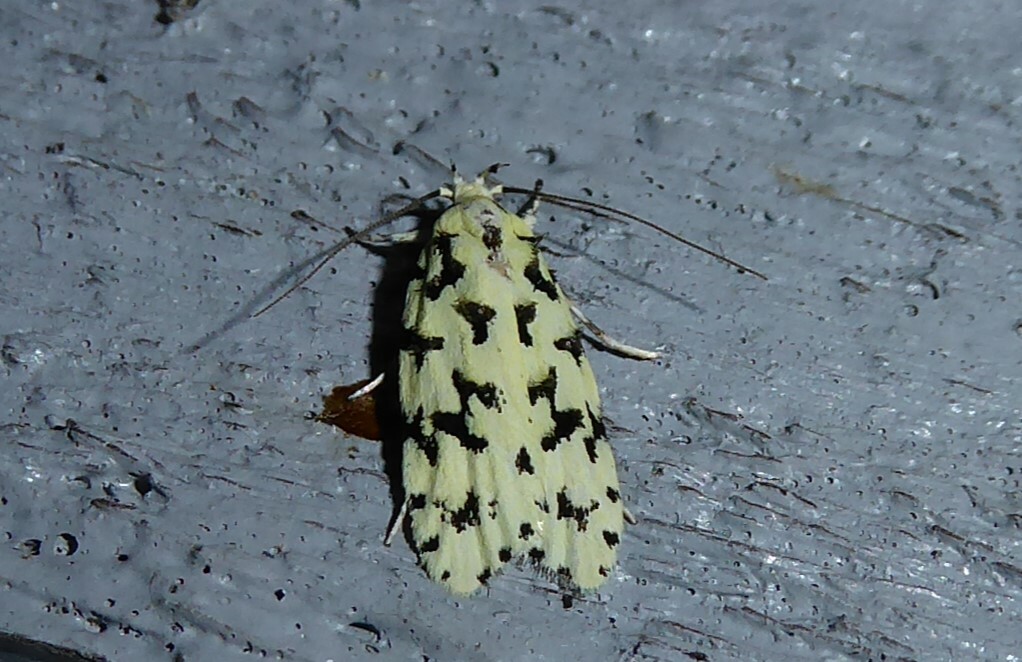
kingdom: Animalia
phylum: Arthropoda
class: Insecta
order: Lepidoptera
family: Oecophoridae
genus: Izatha
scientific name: Izatha huttoni
